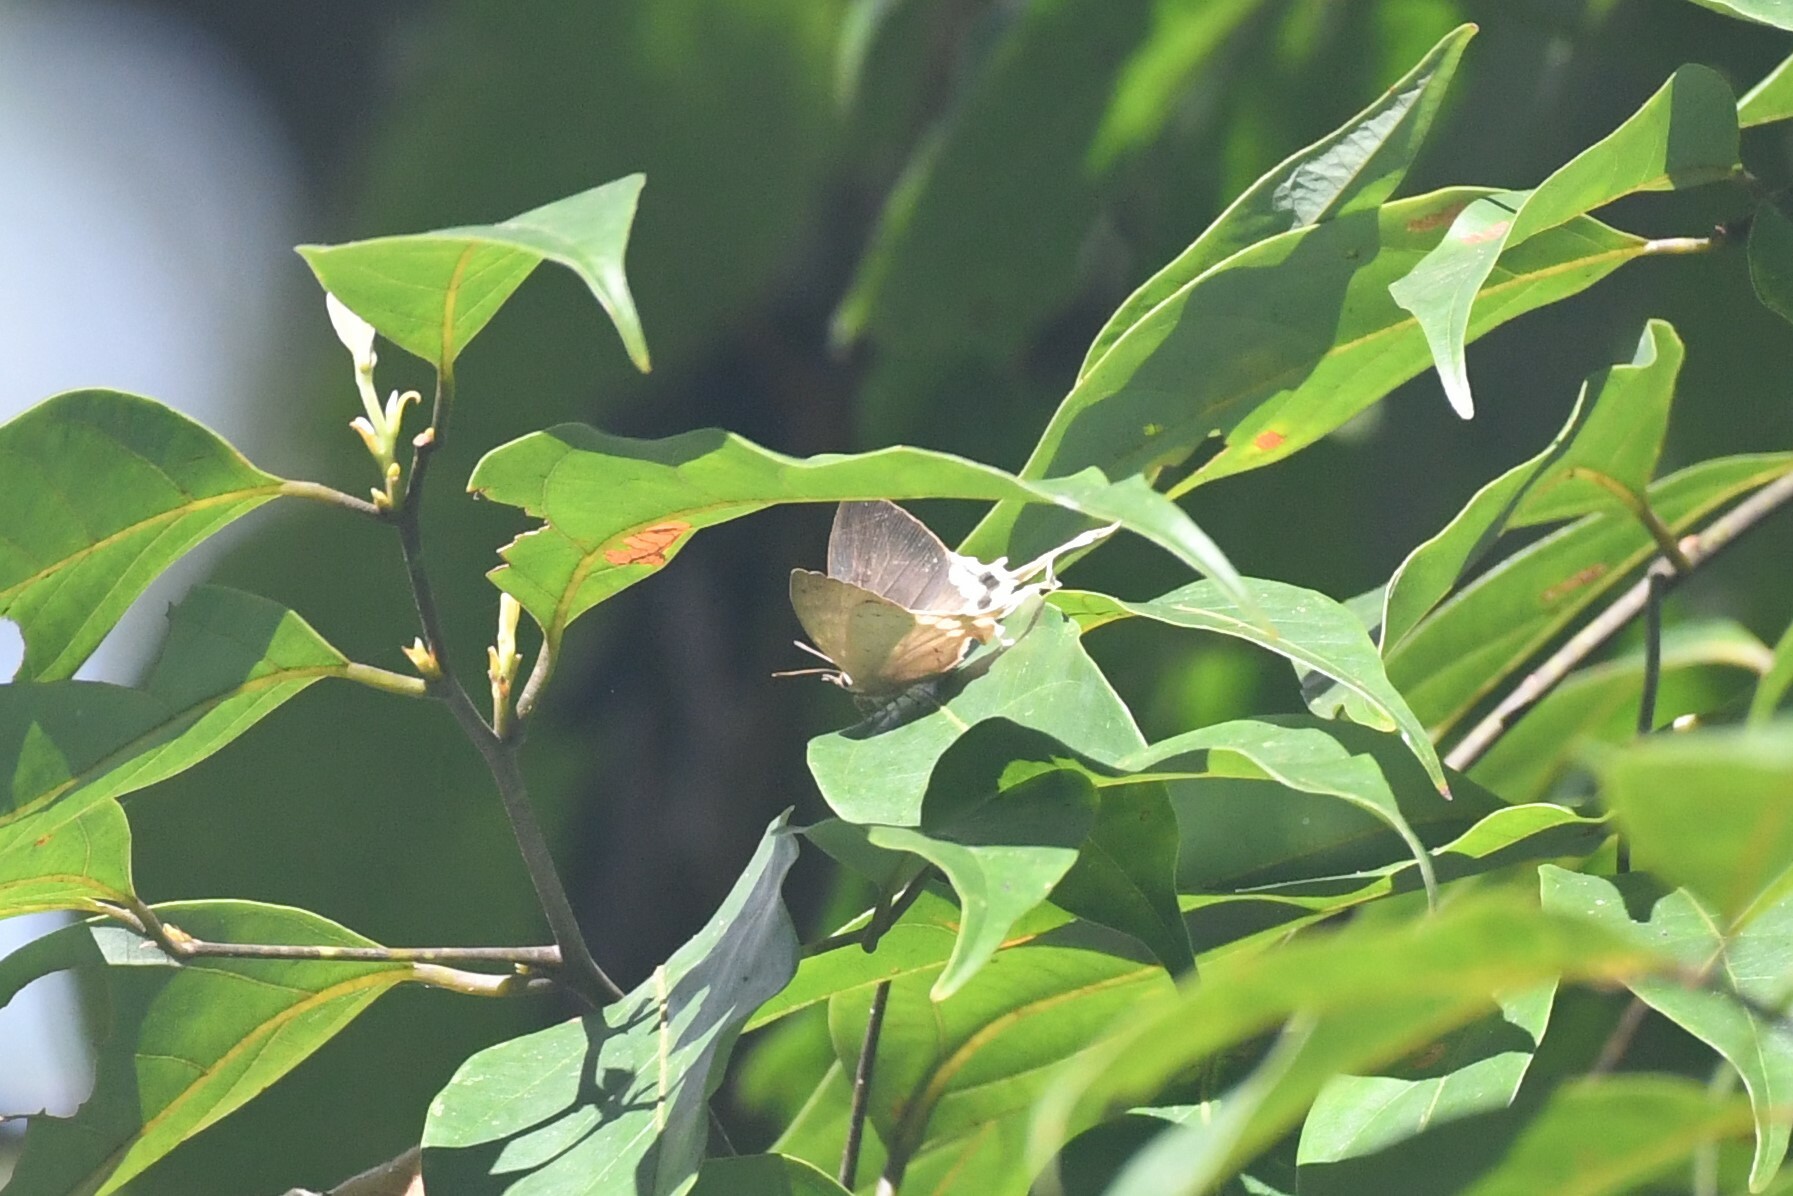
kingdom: Animalia
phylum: Arthropoda
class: Insecta
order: Lepidoptera
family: Lycaenidae
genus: Ticherra
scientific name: Ticherra acte
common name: Blue imperial
